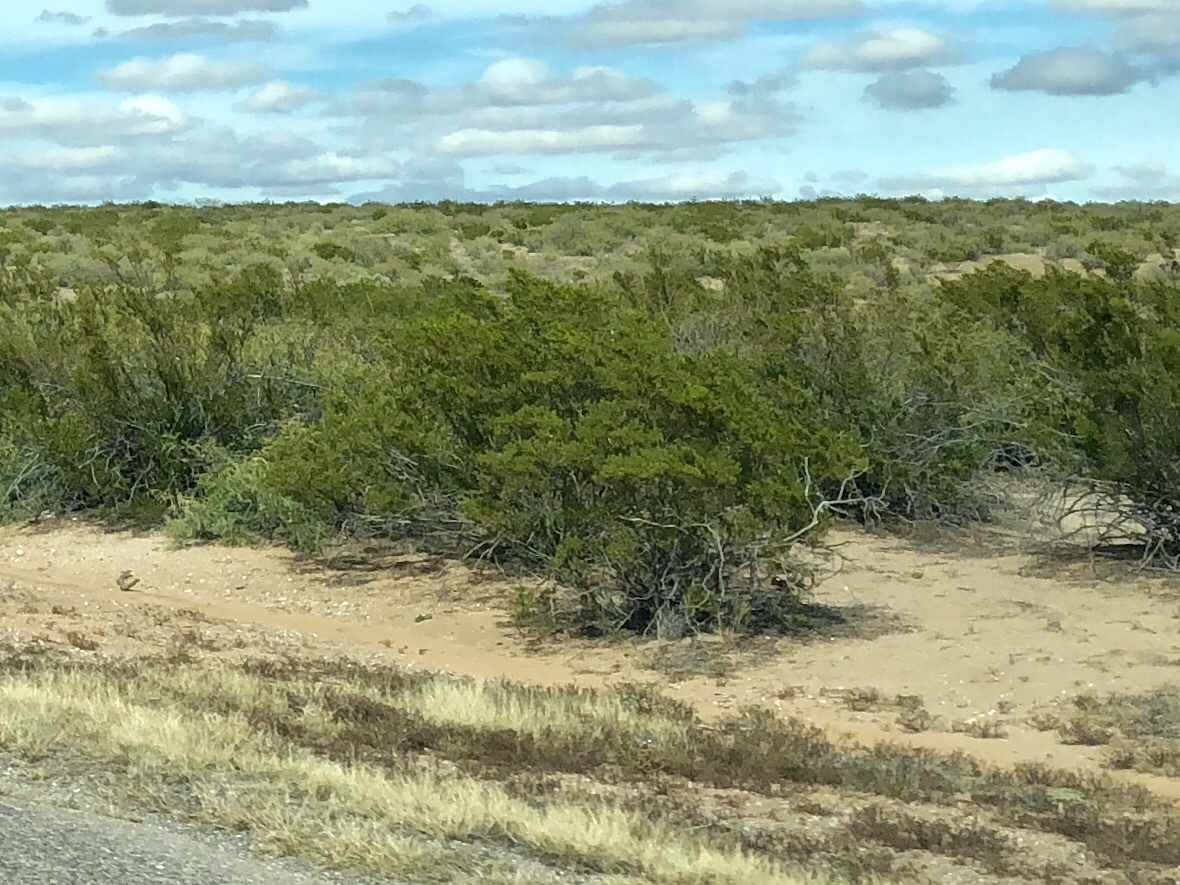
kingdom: Plantae
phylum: Tracheophyta
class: Magnoliopsida
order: Zygophyllales
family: Zygophyllaceae
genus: Larrea
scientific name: Larrea tridentata
